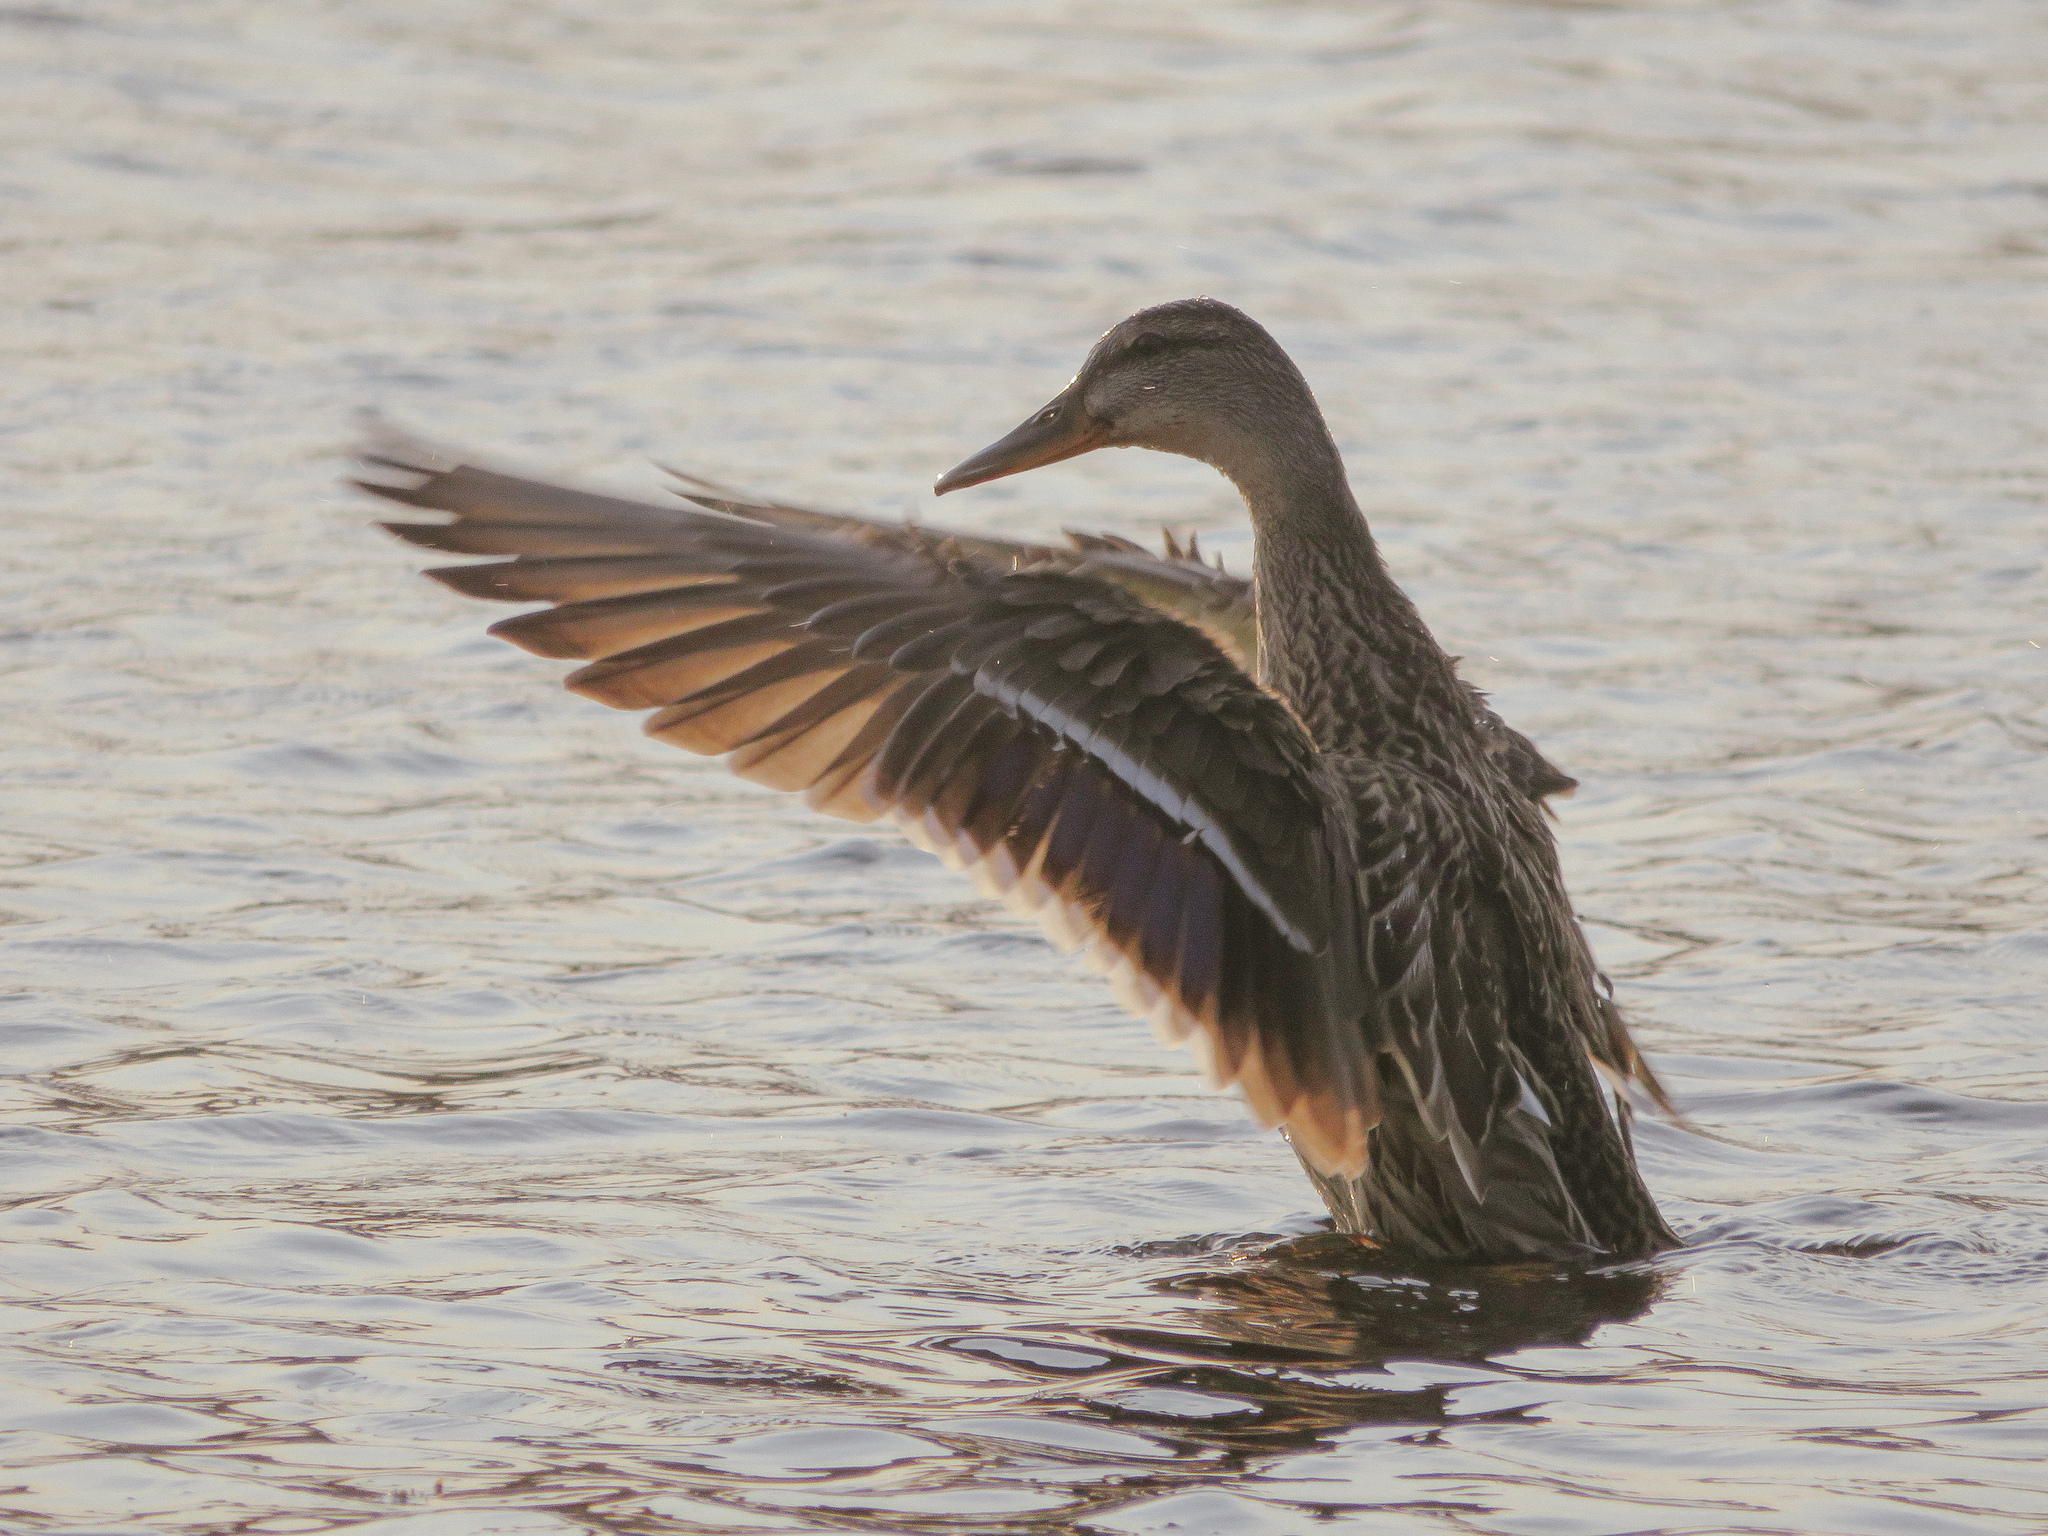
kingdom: Animalia
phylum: Chordata
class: Aves
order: Anseriformes
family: Anatidae
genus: Anas
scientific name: Anas platyrhynchos
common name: Mallard
